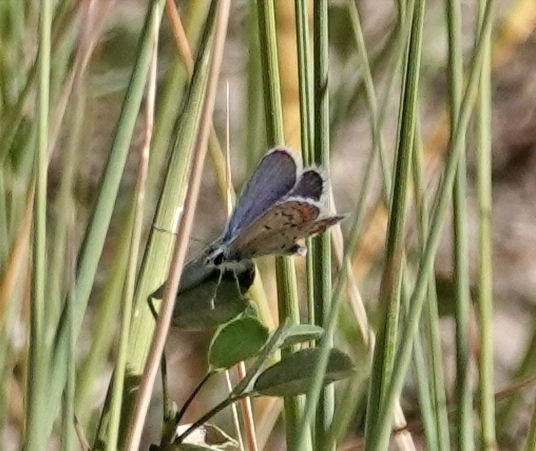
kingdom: Animalia
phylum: Arthropoda
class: Insecta
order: Lepidoptera
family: Lycaenidae
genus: Lycaeides
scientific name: Lycaeides melissa
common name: Melissa blue
